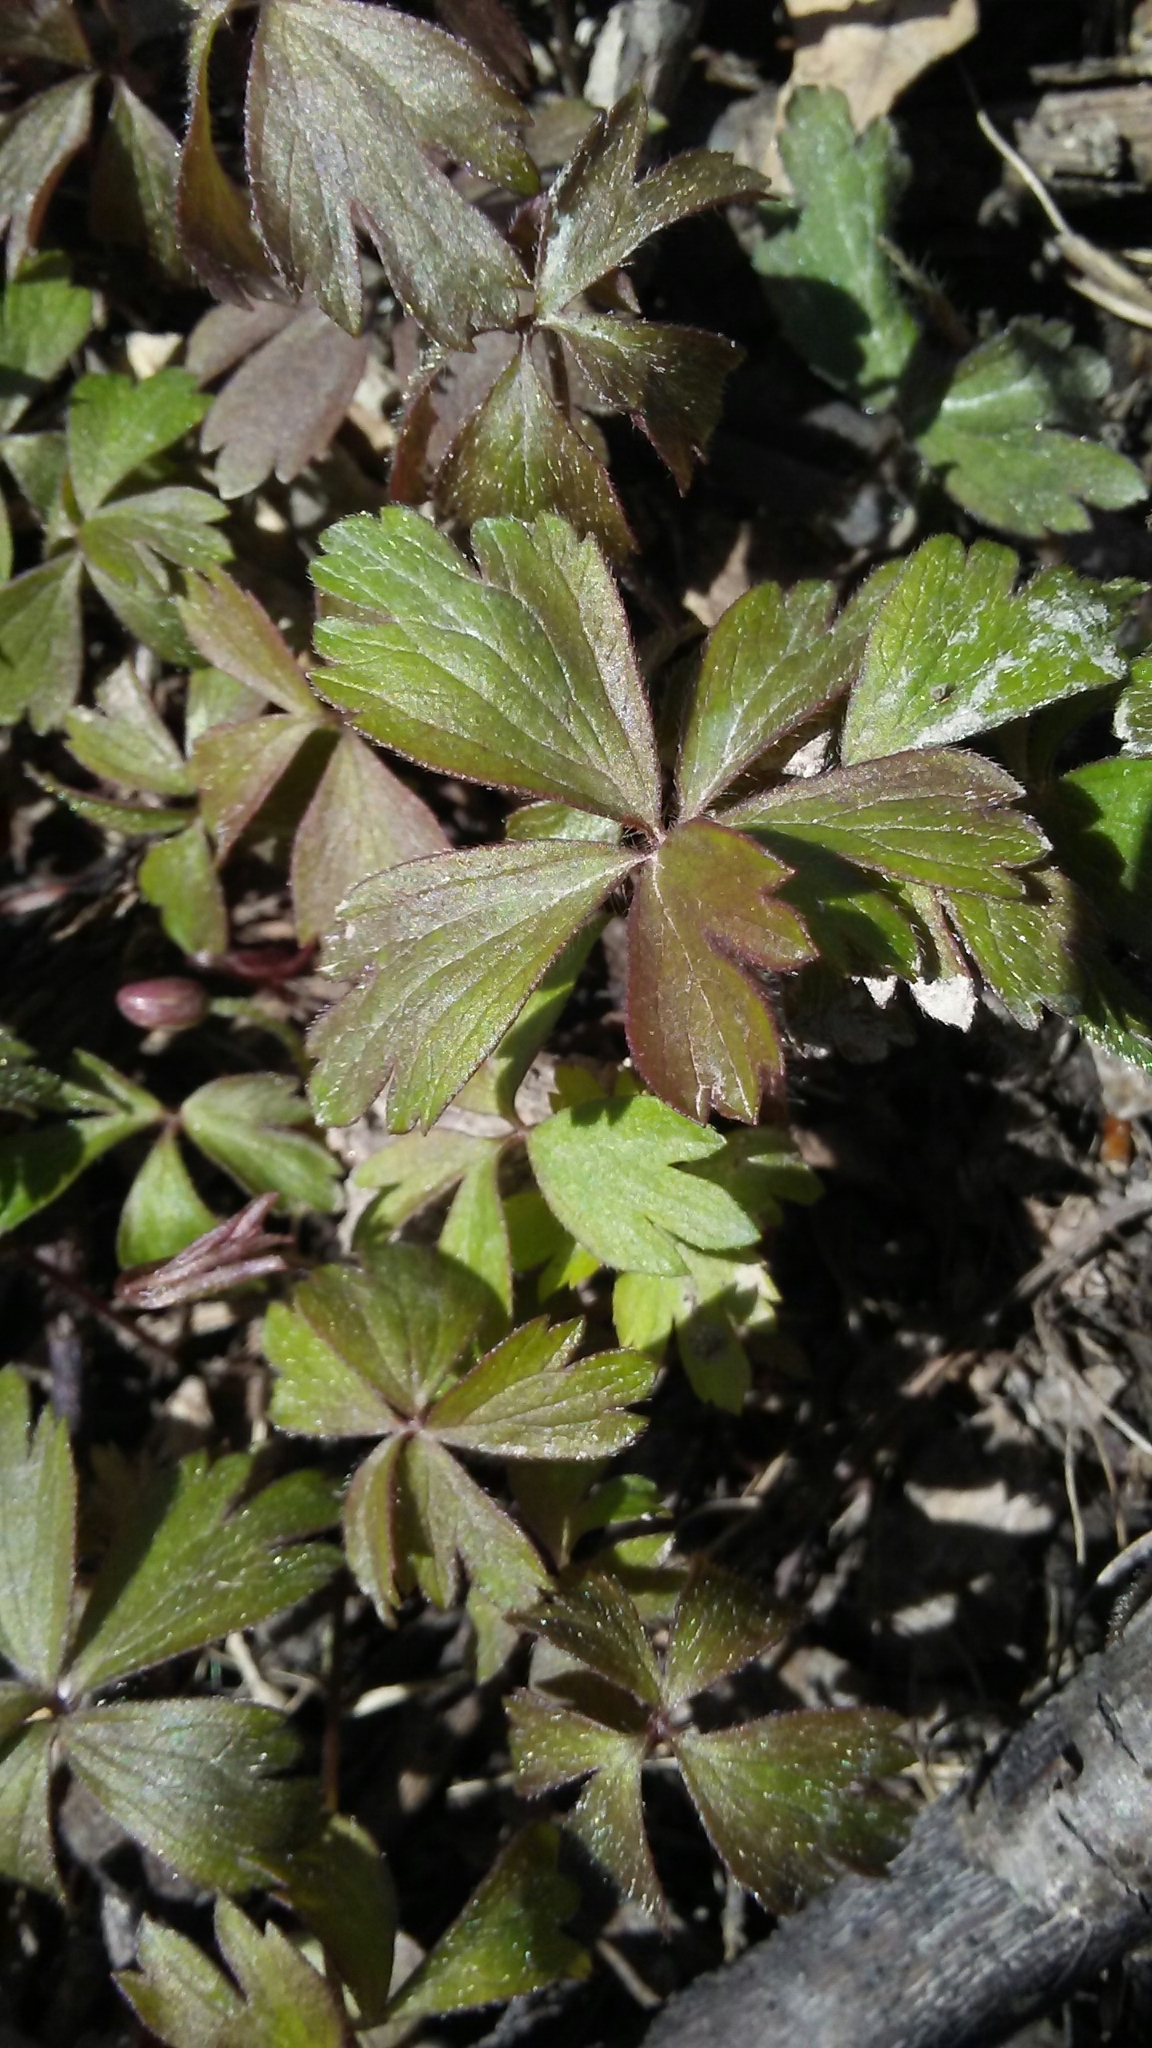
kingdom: Plantae
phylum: Tracheophyta
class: Magnoliopsida
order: Ranunculales
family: Ranunculaceae
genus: Anemone
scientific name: Anemone quinquefolia
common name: Wood anemone
